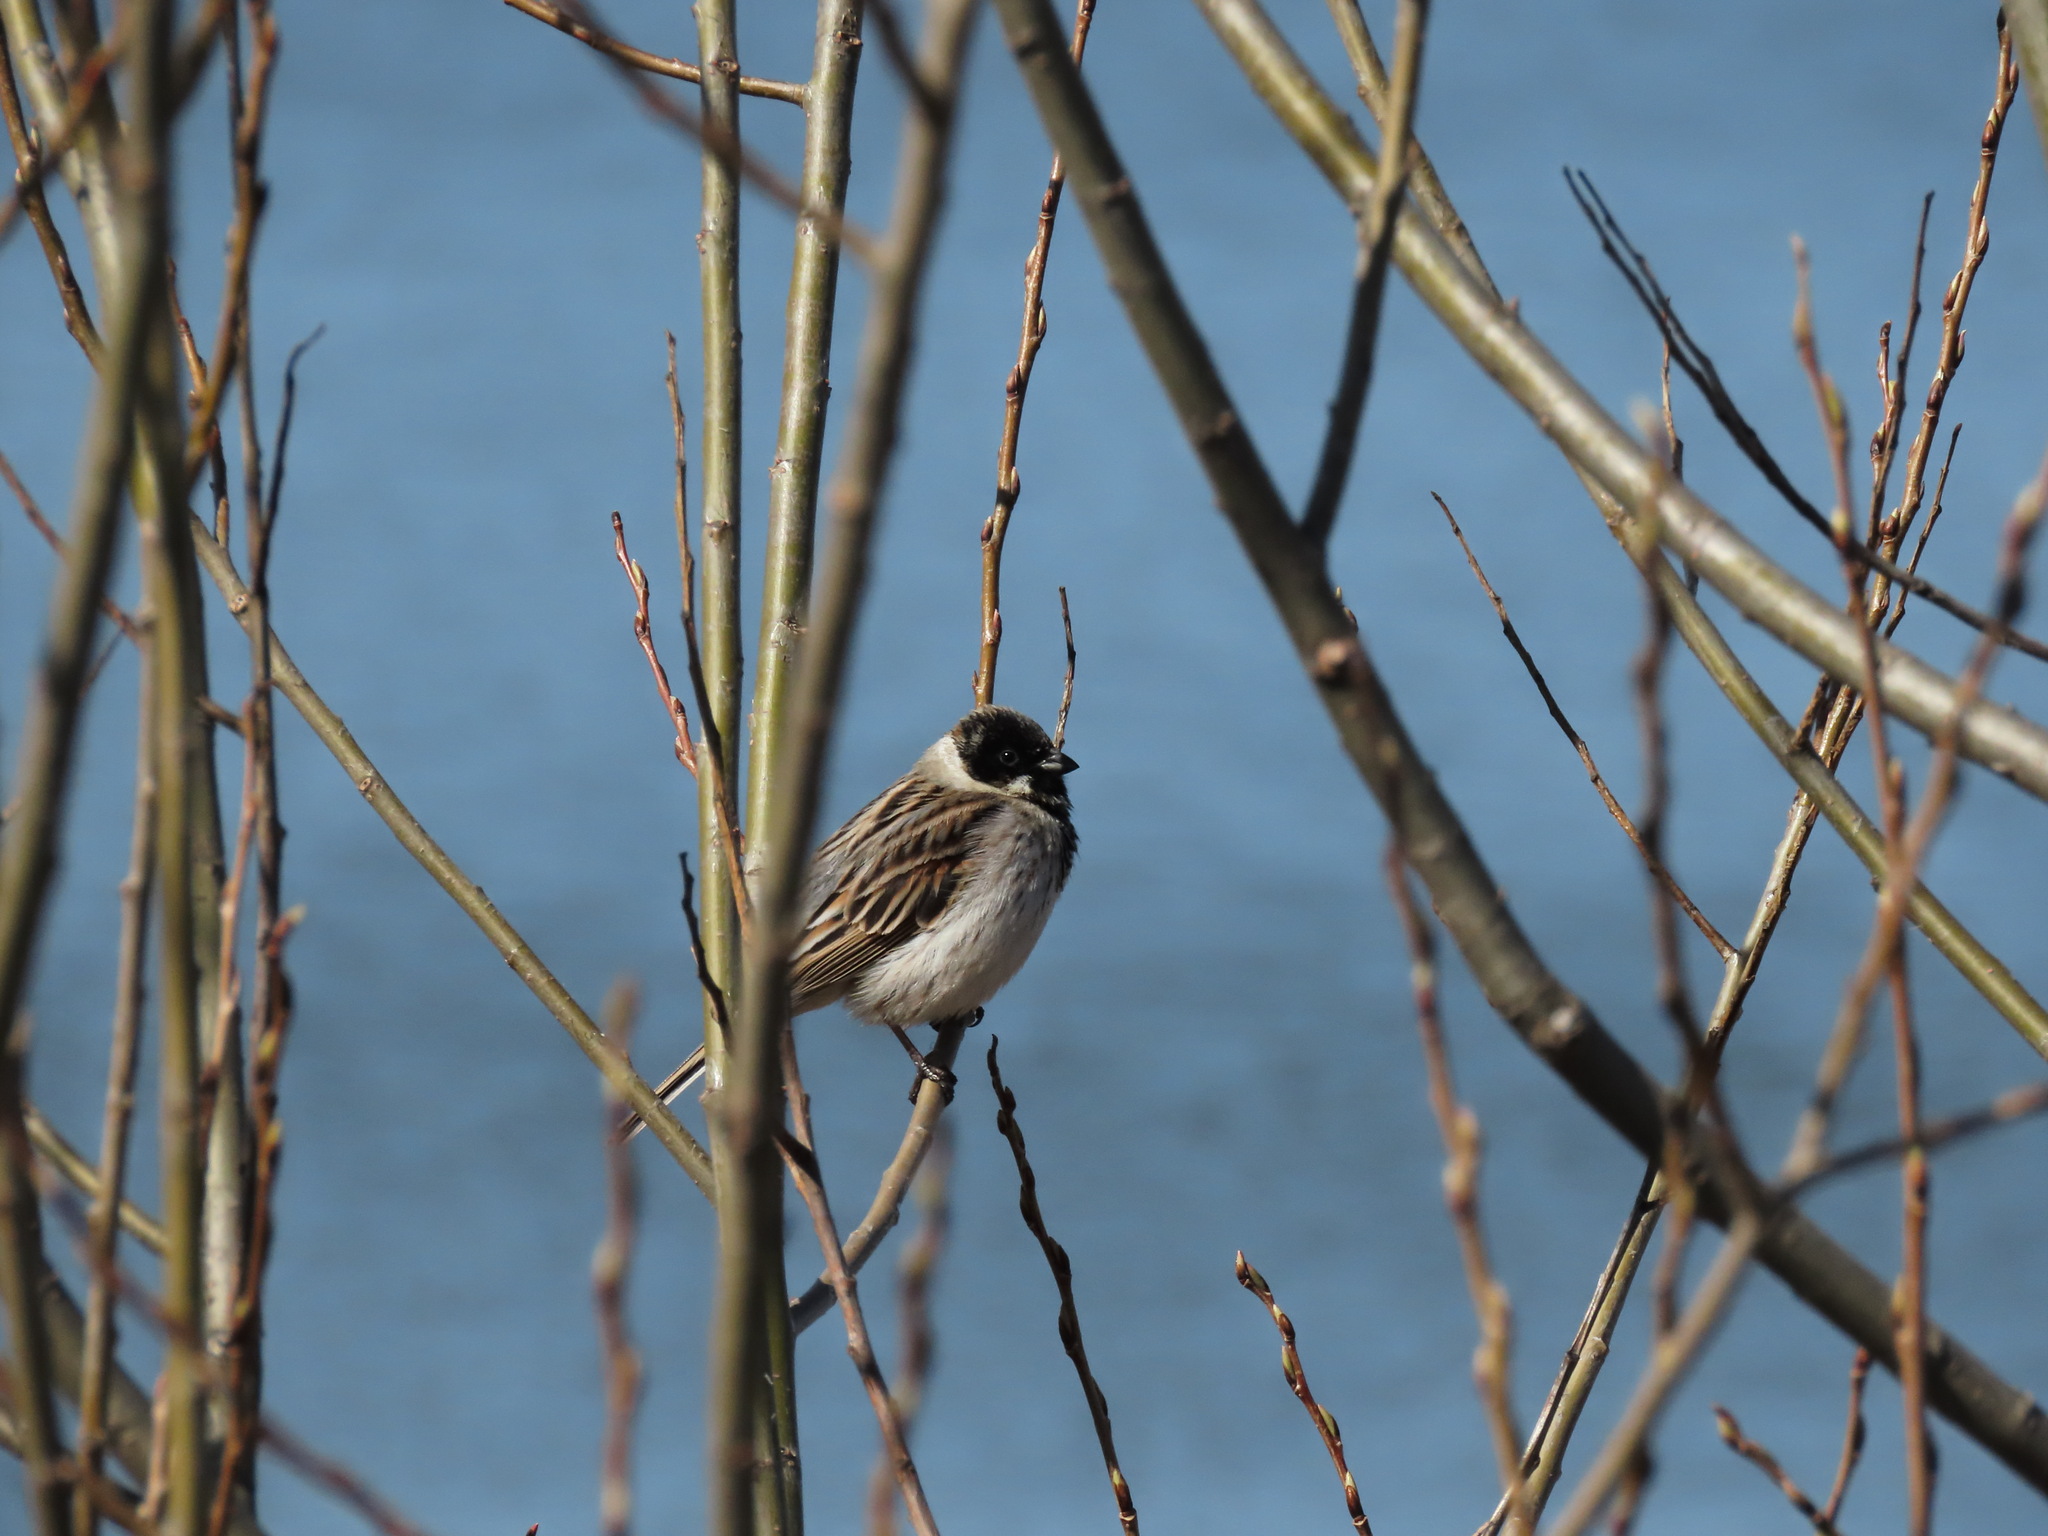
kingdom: Animalia
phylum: Chordata
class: Aves
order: Passeriformes
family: Emberizidae
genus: Emberiza
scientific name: Emberiza schoeniclus
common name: Reed bunting
